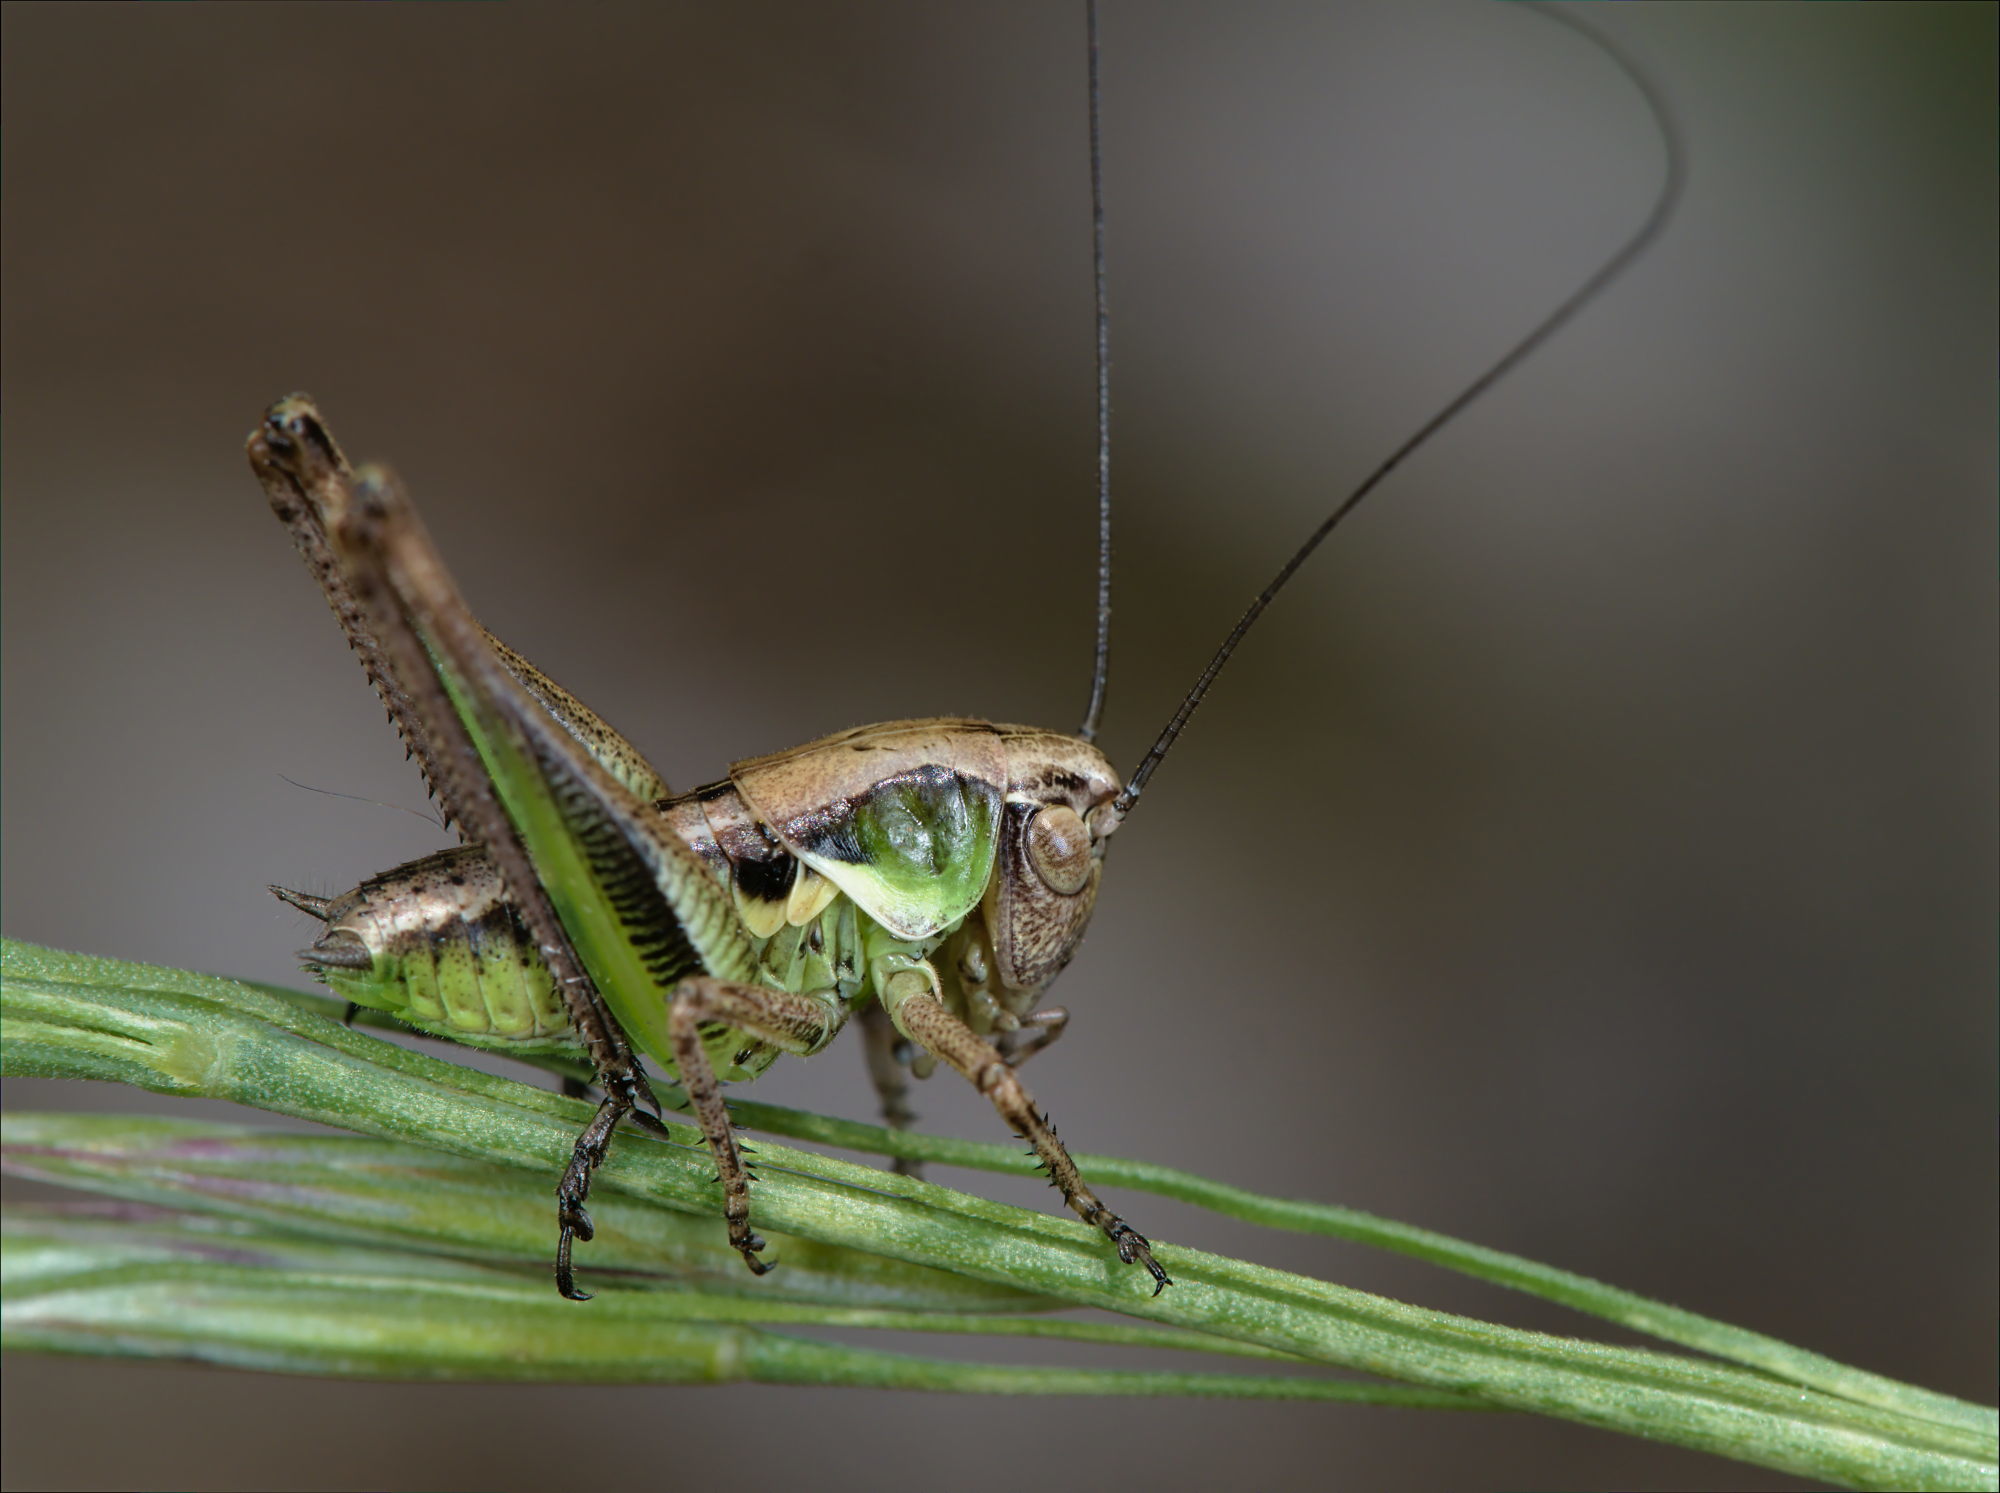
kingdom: Animalia
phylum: Arthropoda
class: Insecta
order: Orthoptera
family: Tettigoniidae
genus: Platycleis
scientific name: Platycleis albopunctata
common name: Grey bush-cricket
